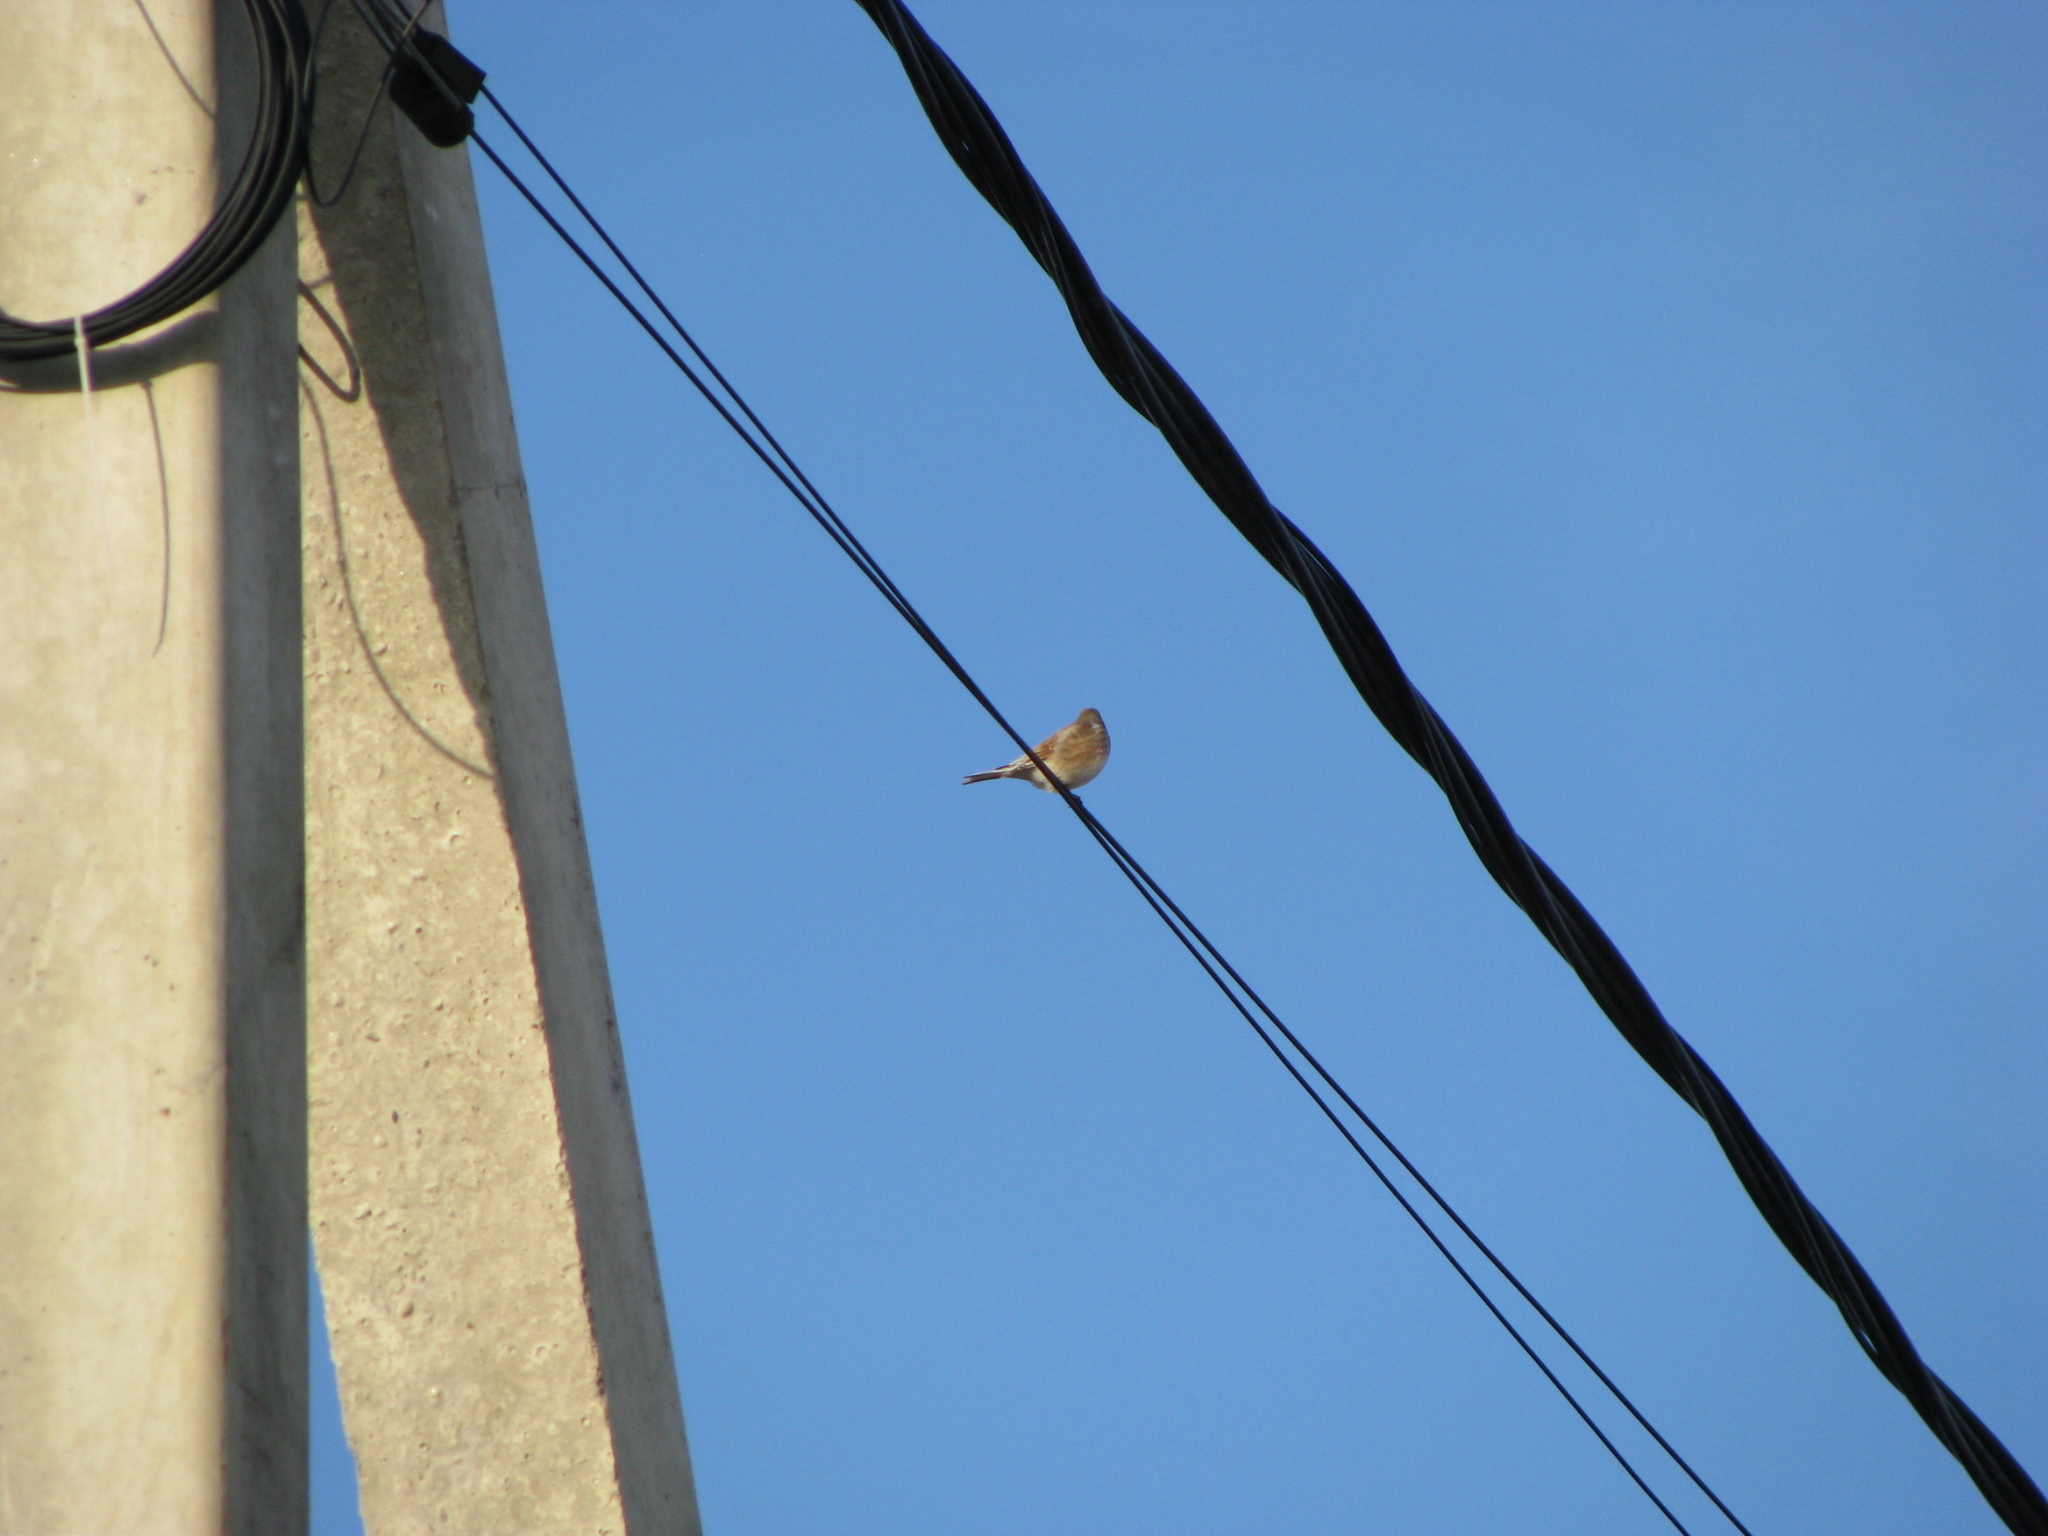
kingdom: Animalia
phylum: Chordata
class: Aves
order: Passeriformes
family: Fringillidae
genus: Linaria
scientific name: Linaria cannabina
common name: Common linnet
